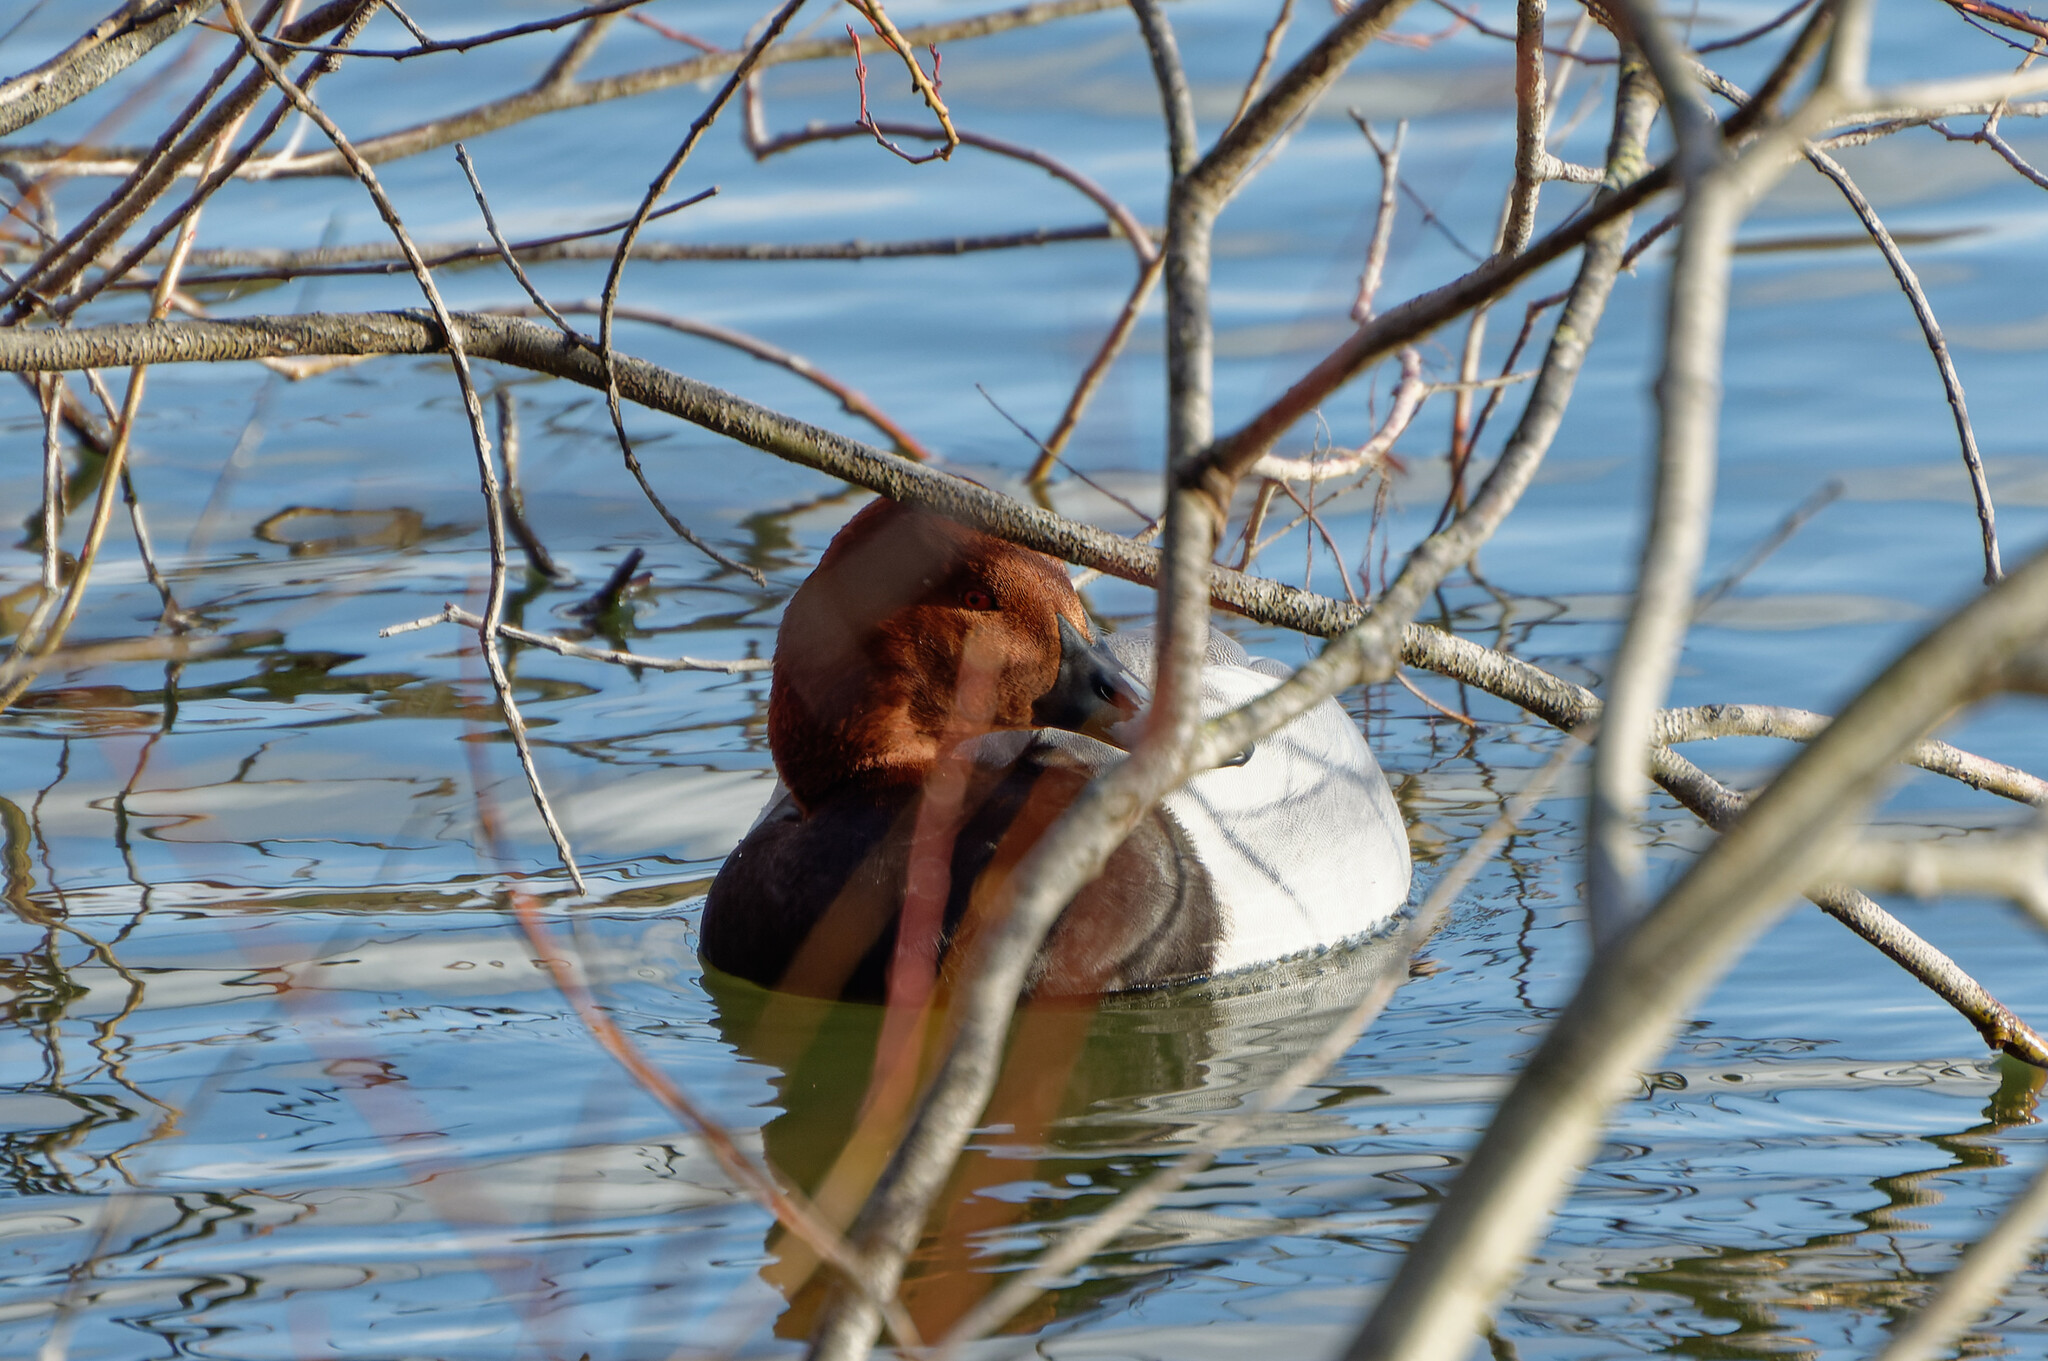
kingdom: Animalia
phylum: Chordata
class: Aves
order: Anseriformes
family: Anatidae
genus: Aythya
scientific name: Aythya ferina
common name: Common pochard
